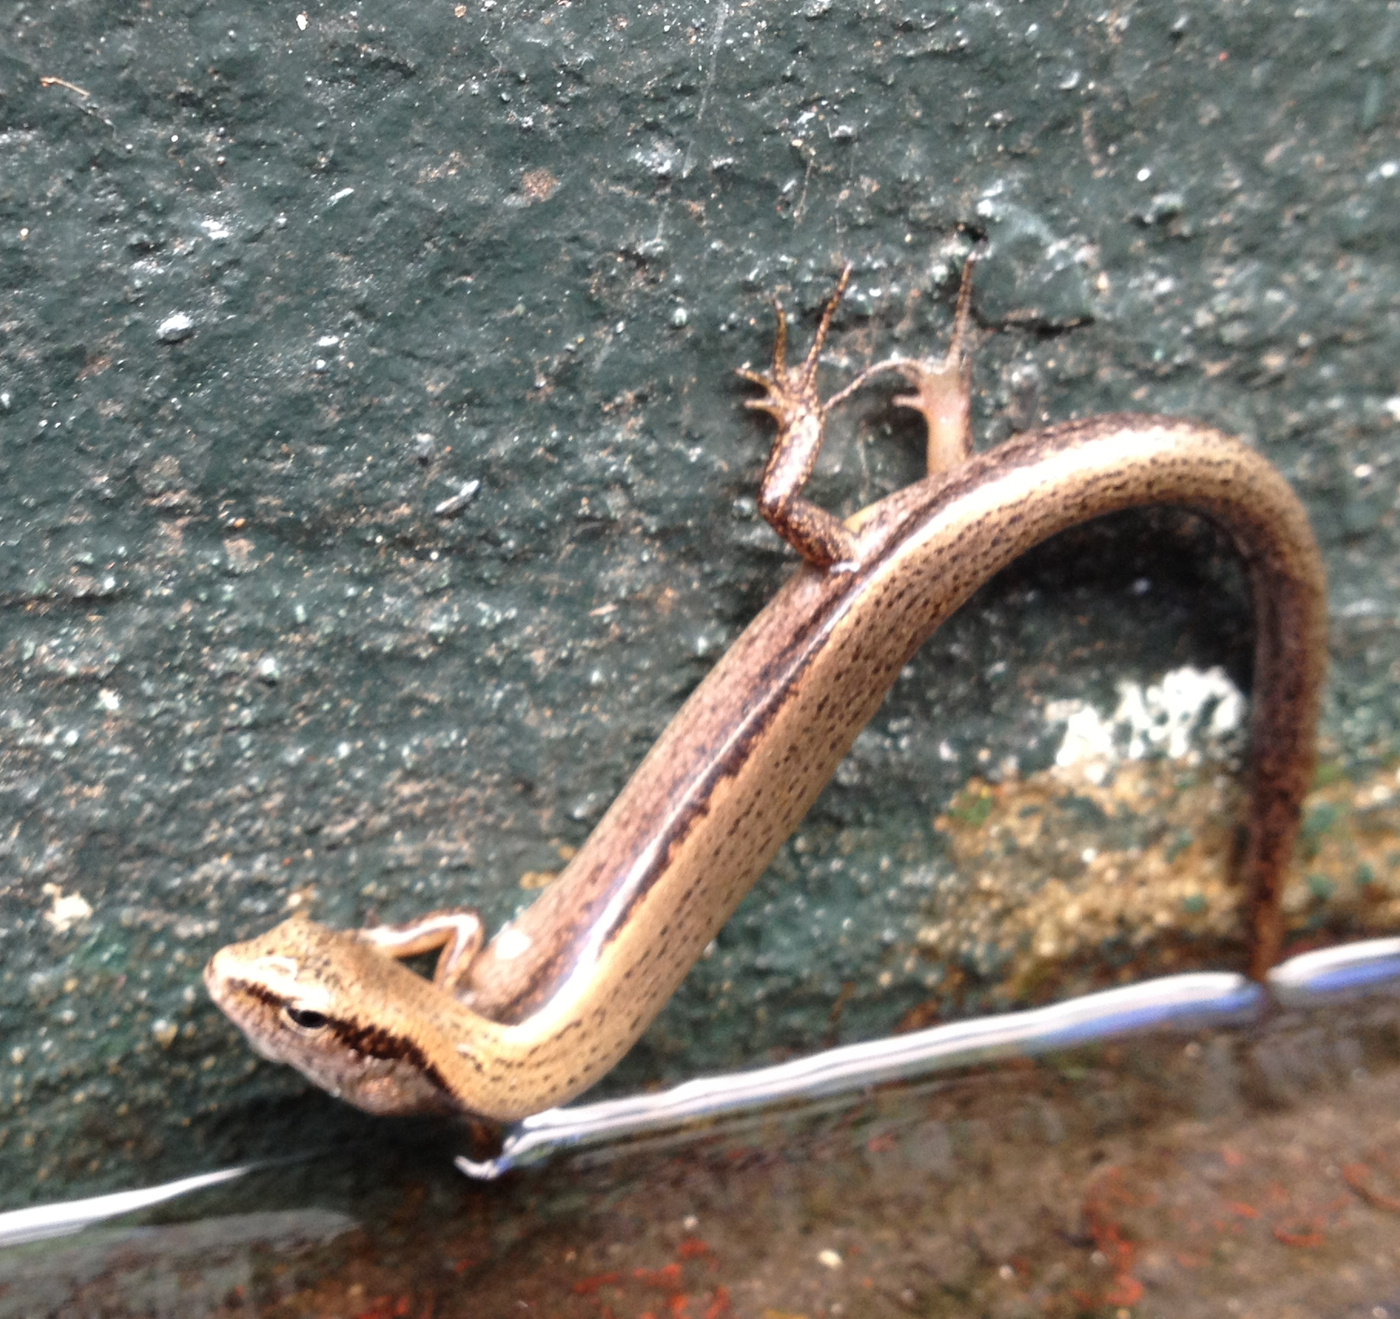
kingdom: Animalia
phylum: Chordata
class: Squamata
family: Scincidae
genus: Scincella
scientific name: Scincella lateralis
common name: Ground skink
